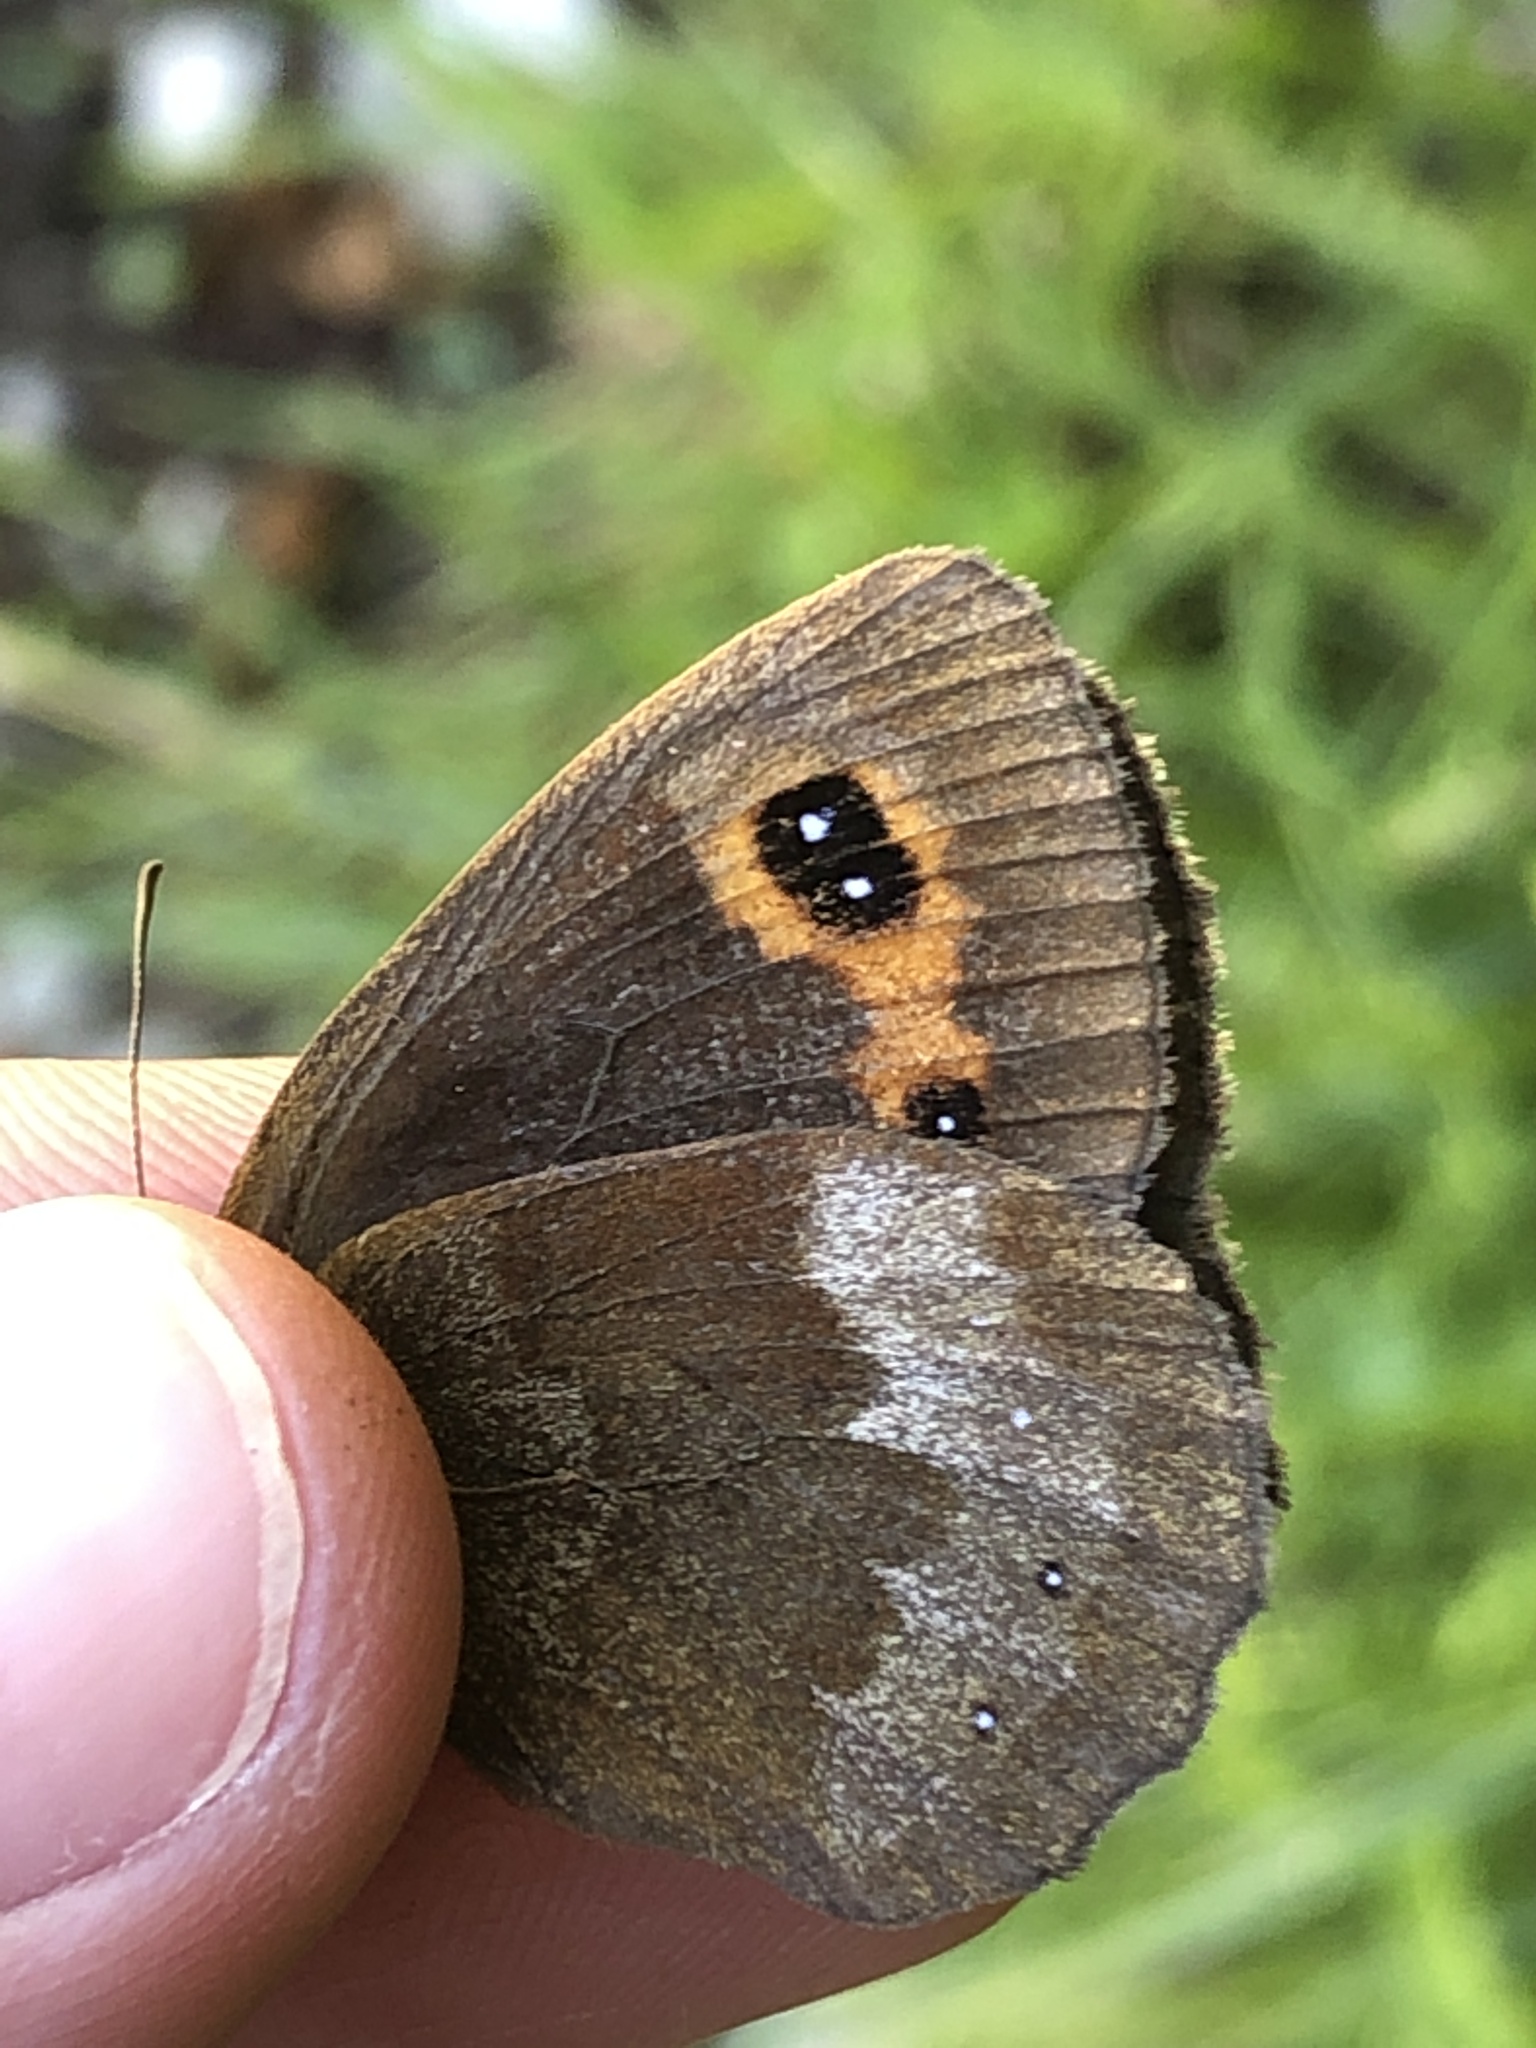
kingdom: Animalia
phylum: Arthropoda
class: Insecta
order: Lepidoptera
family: Nymphalidae
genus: Erebia
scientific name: Erebia aethiops
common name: Scotch argus
